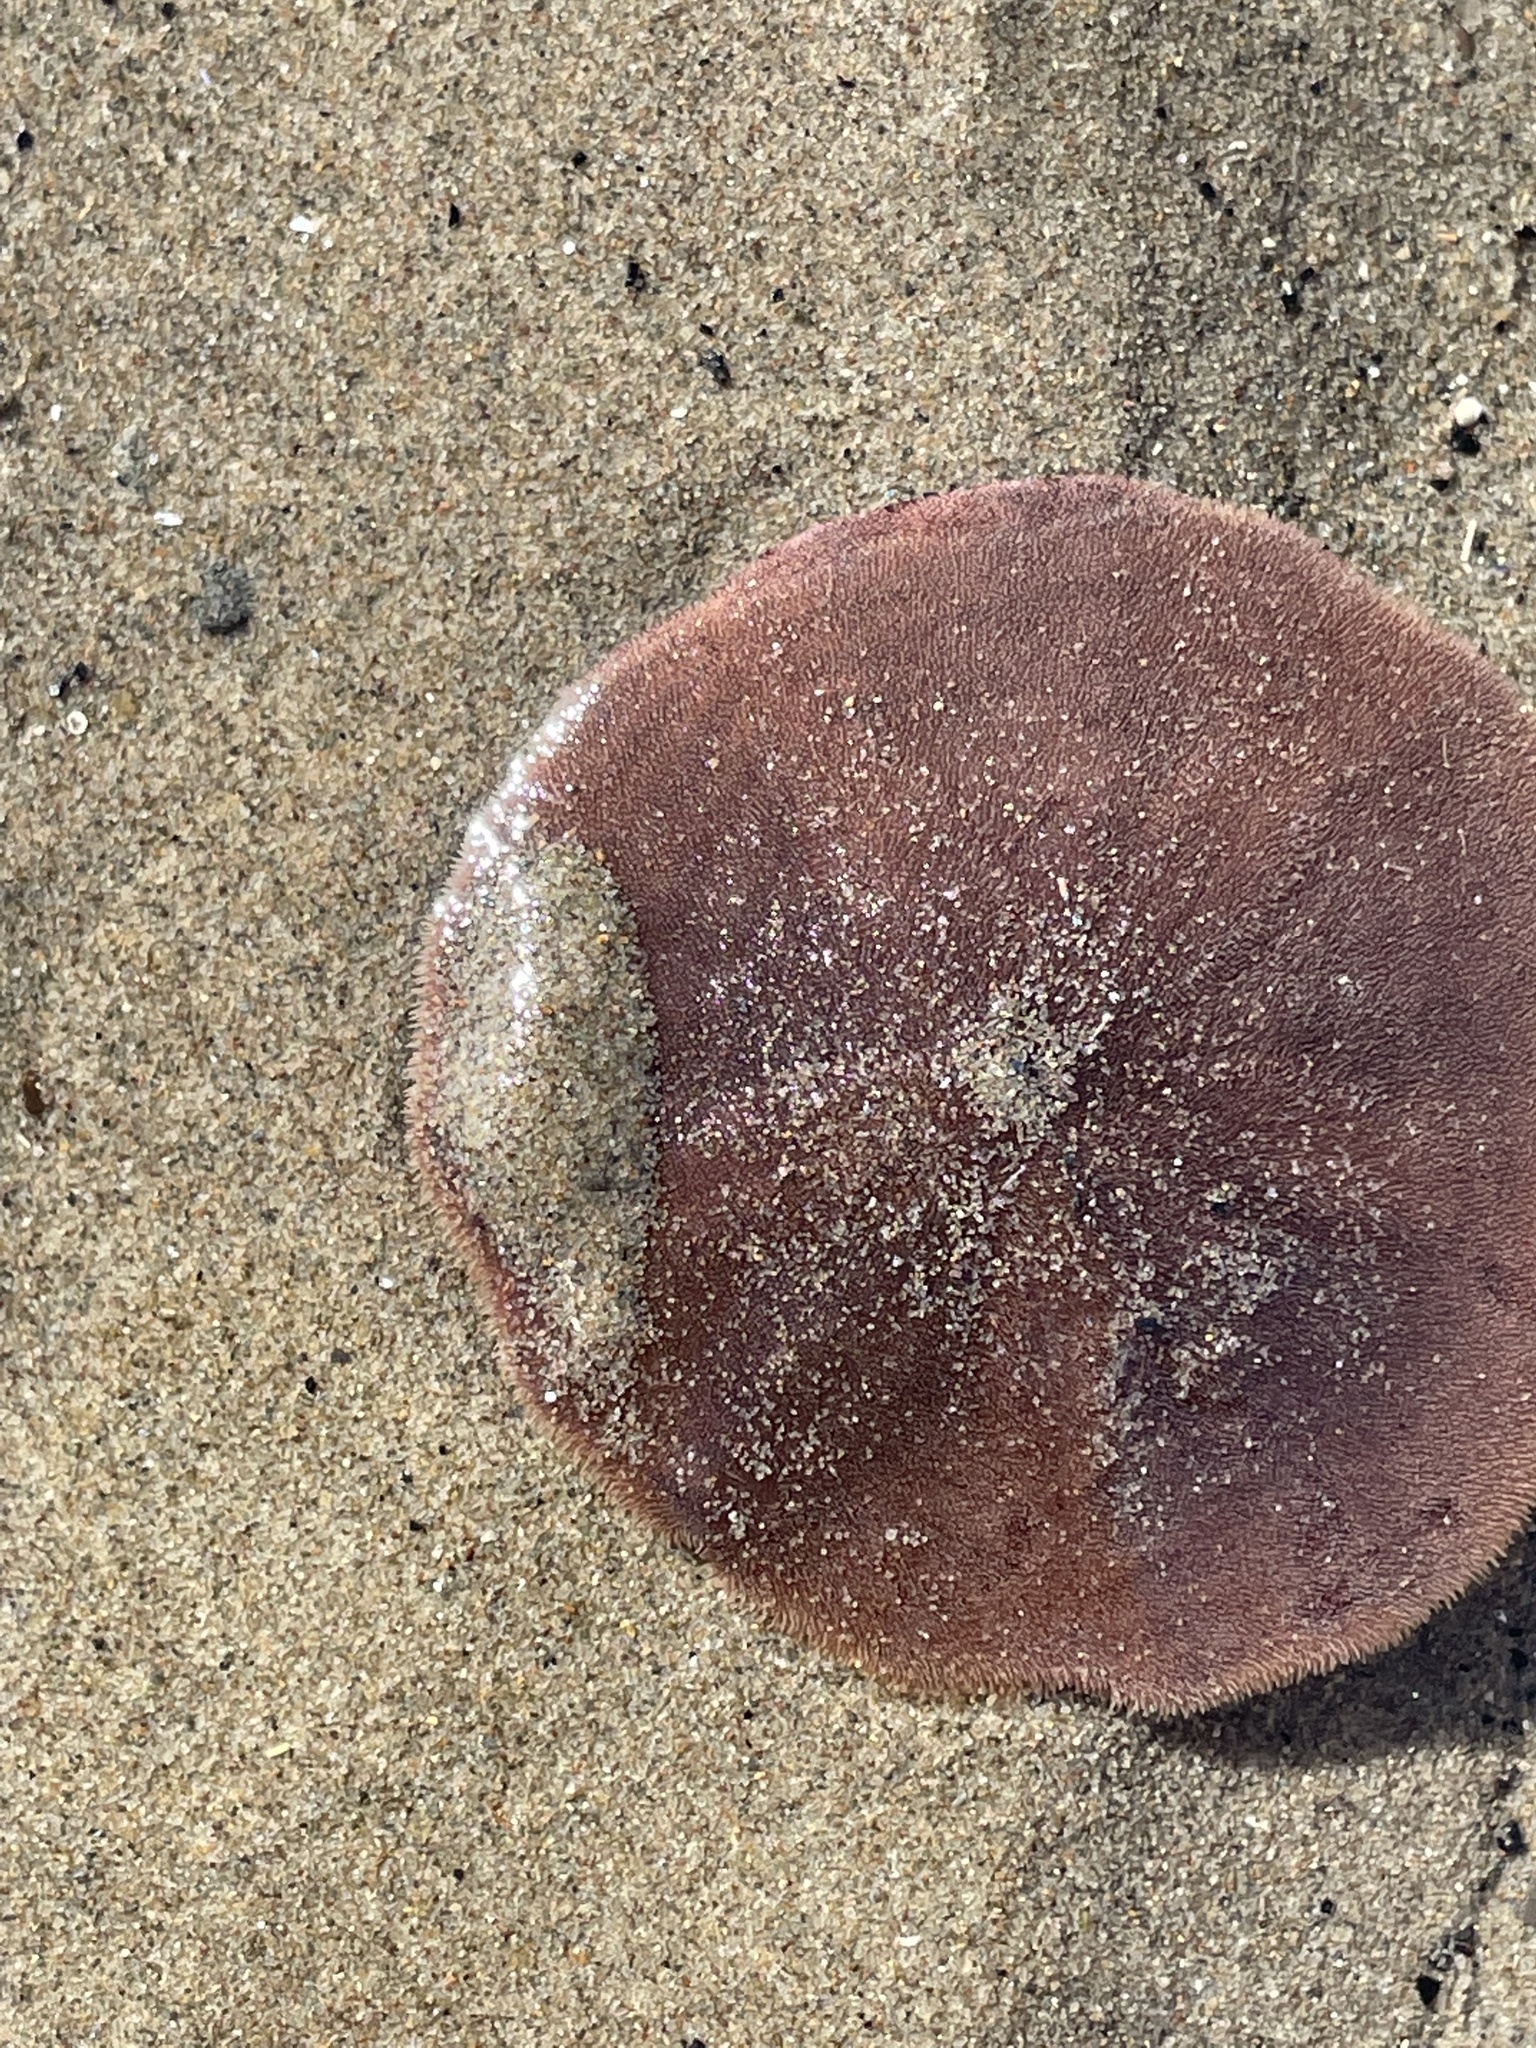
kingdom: Animalia
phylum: Echinodermata
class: Echinoidea
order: Echinolampadacea
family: Echinarachniidae
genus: Echinarachnius
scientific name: Echinarachnius parma
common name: Common sand dollar
